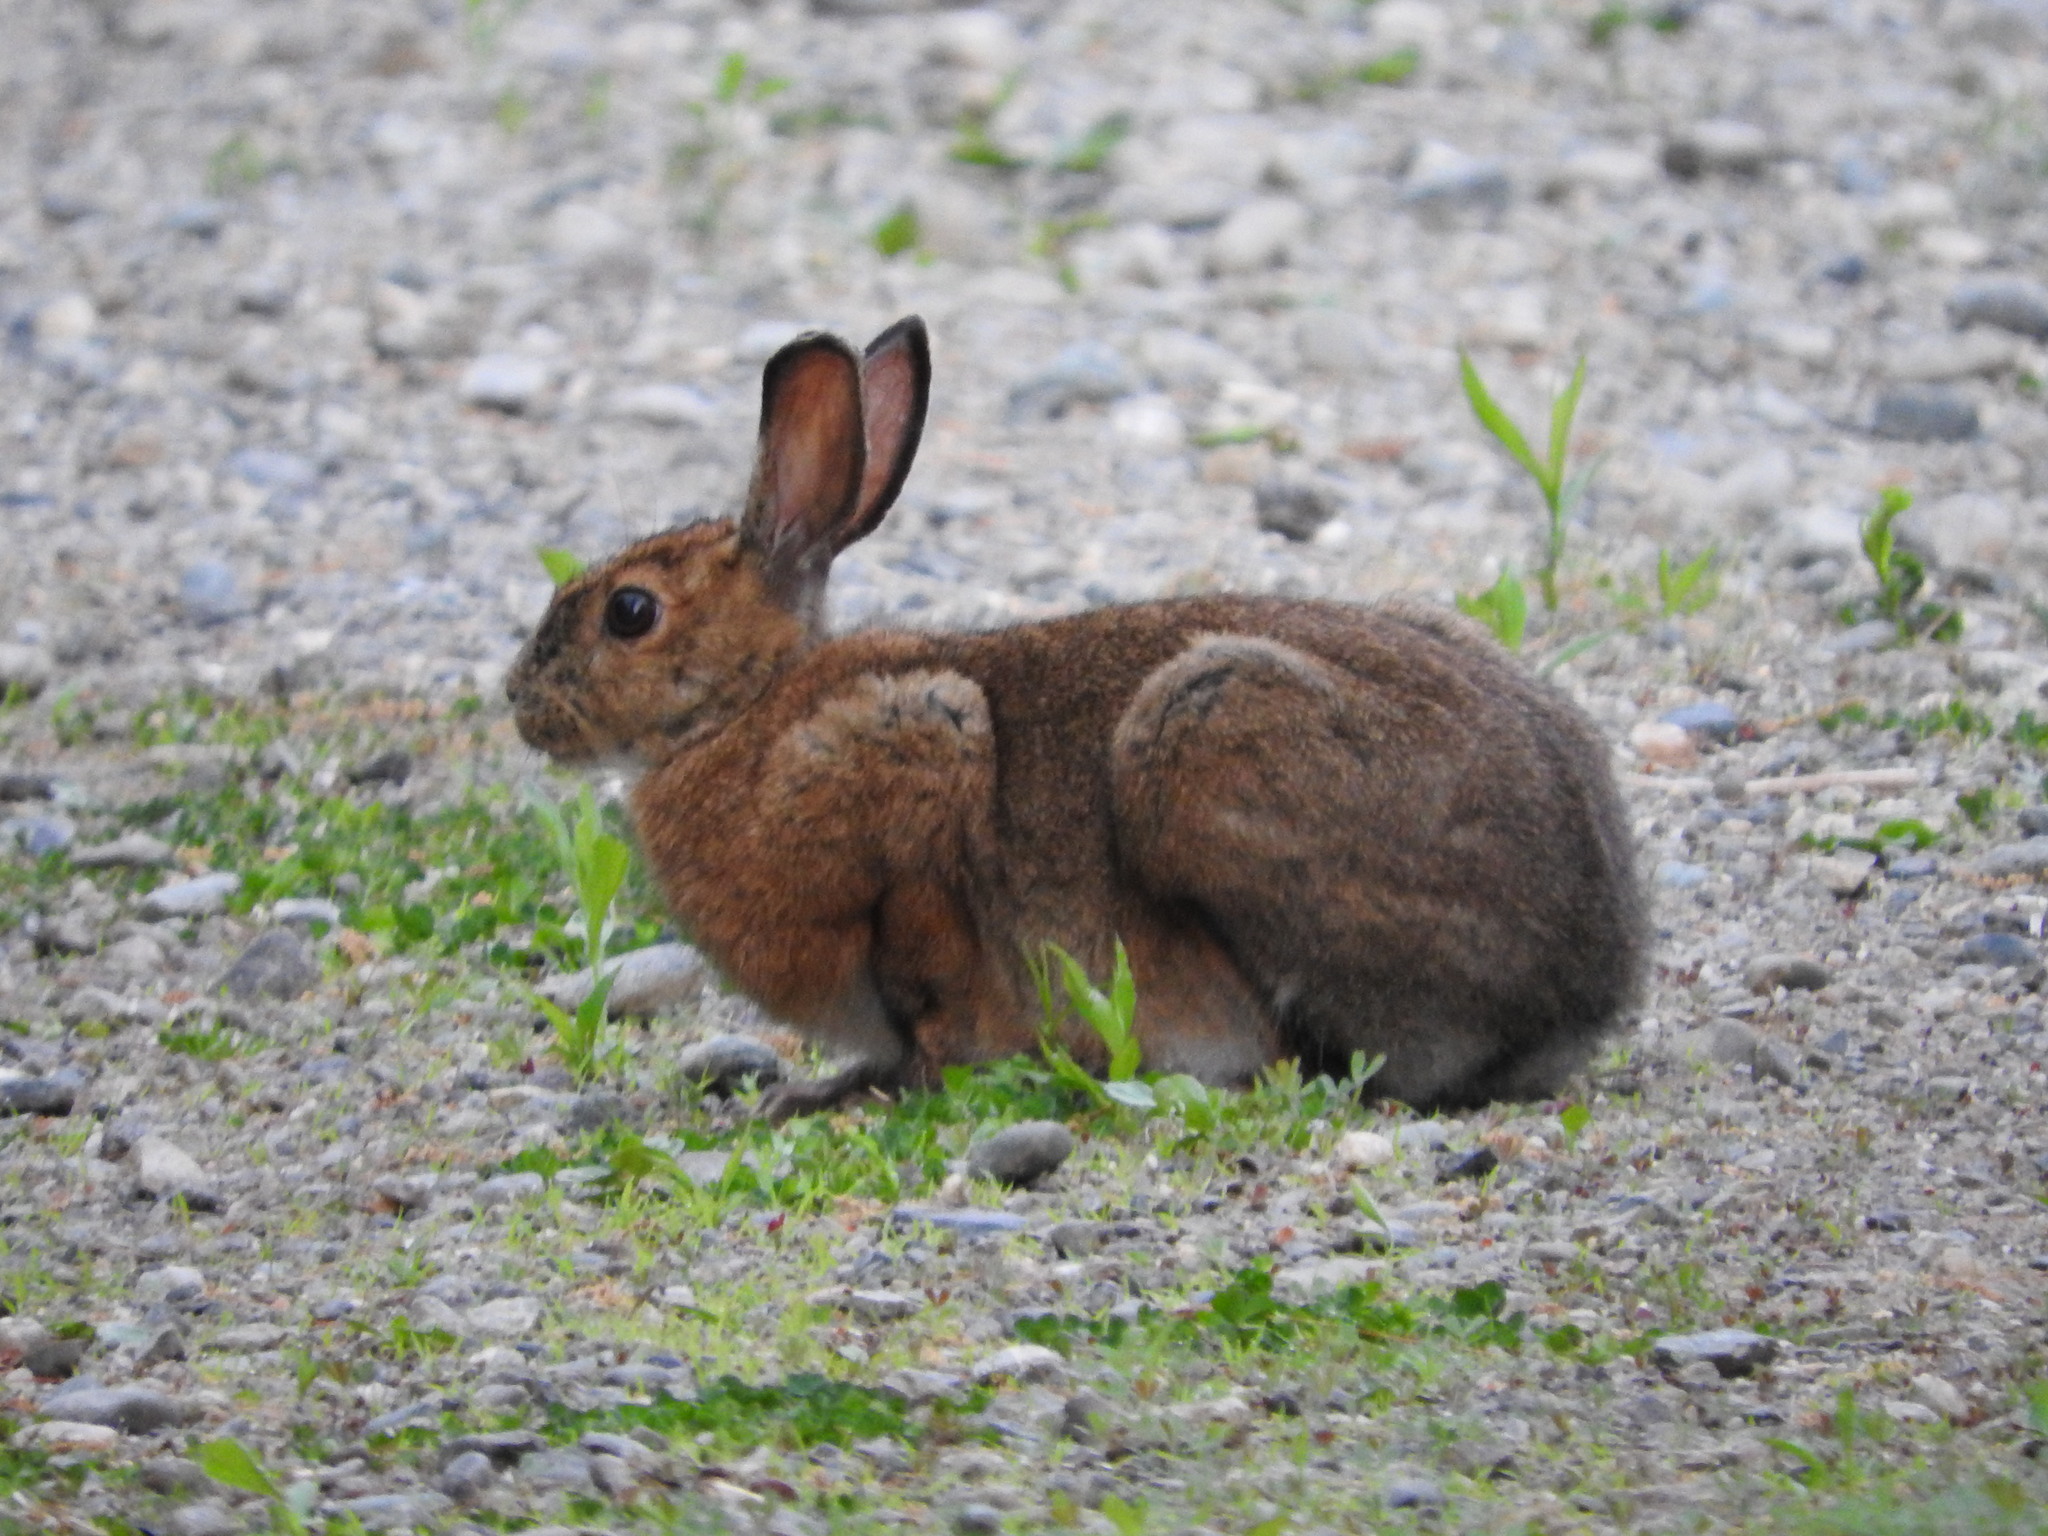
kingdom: Animalia
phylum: Chordata
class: Mammalia
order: Lagomorpha
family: Leporidae
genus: Lepus
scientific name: Lepus americanus
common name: Snowshoe hare
